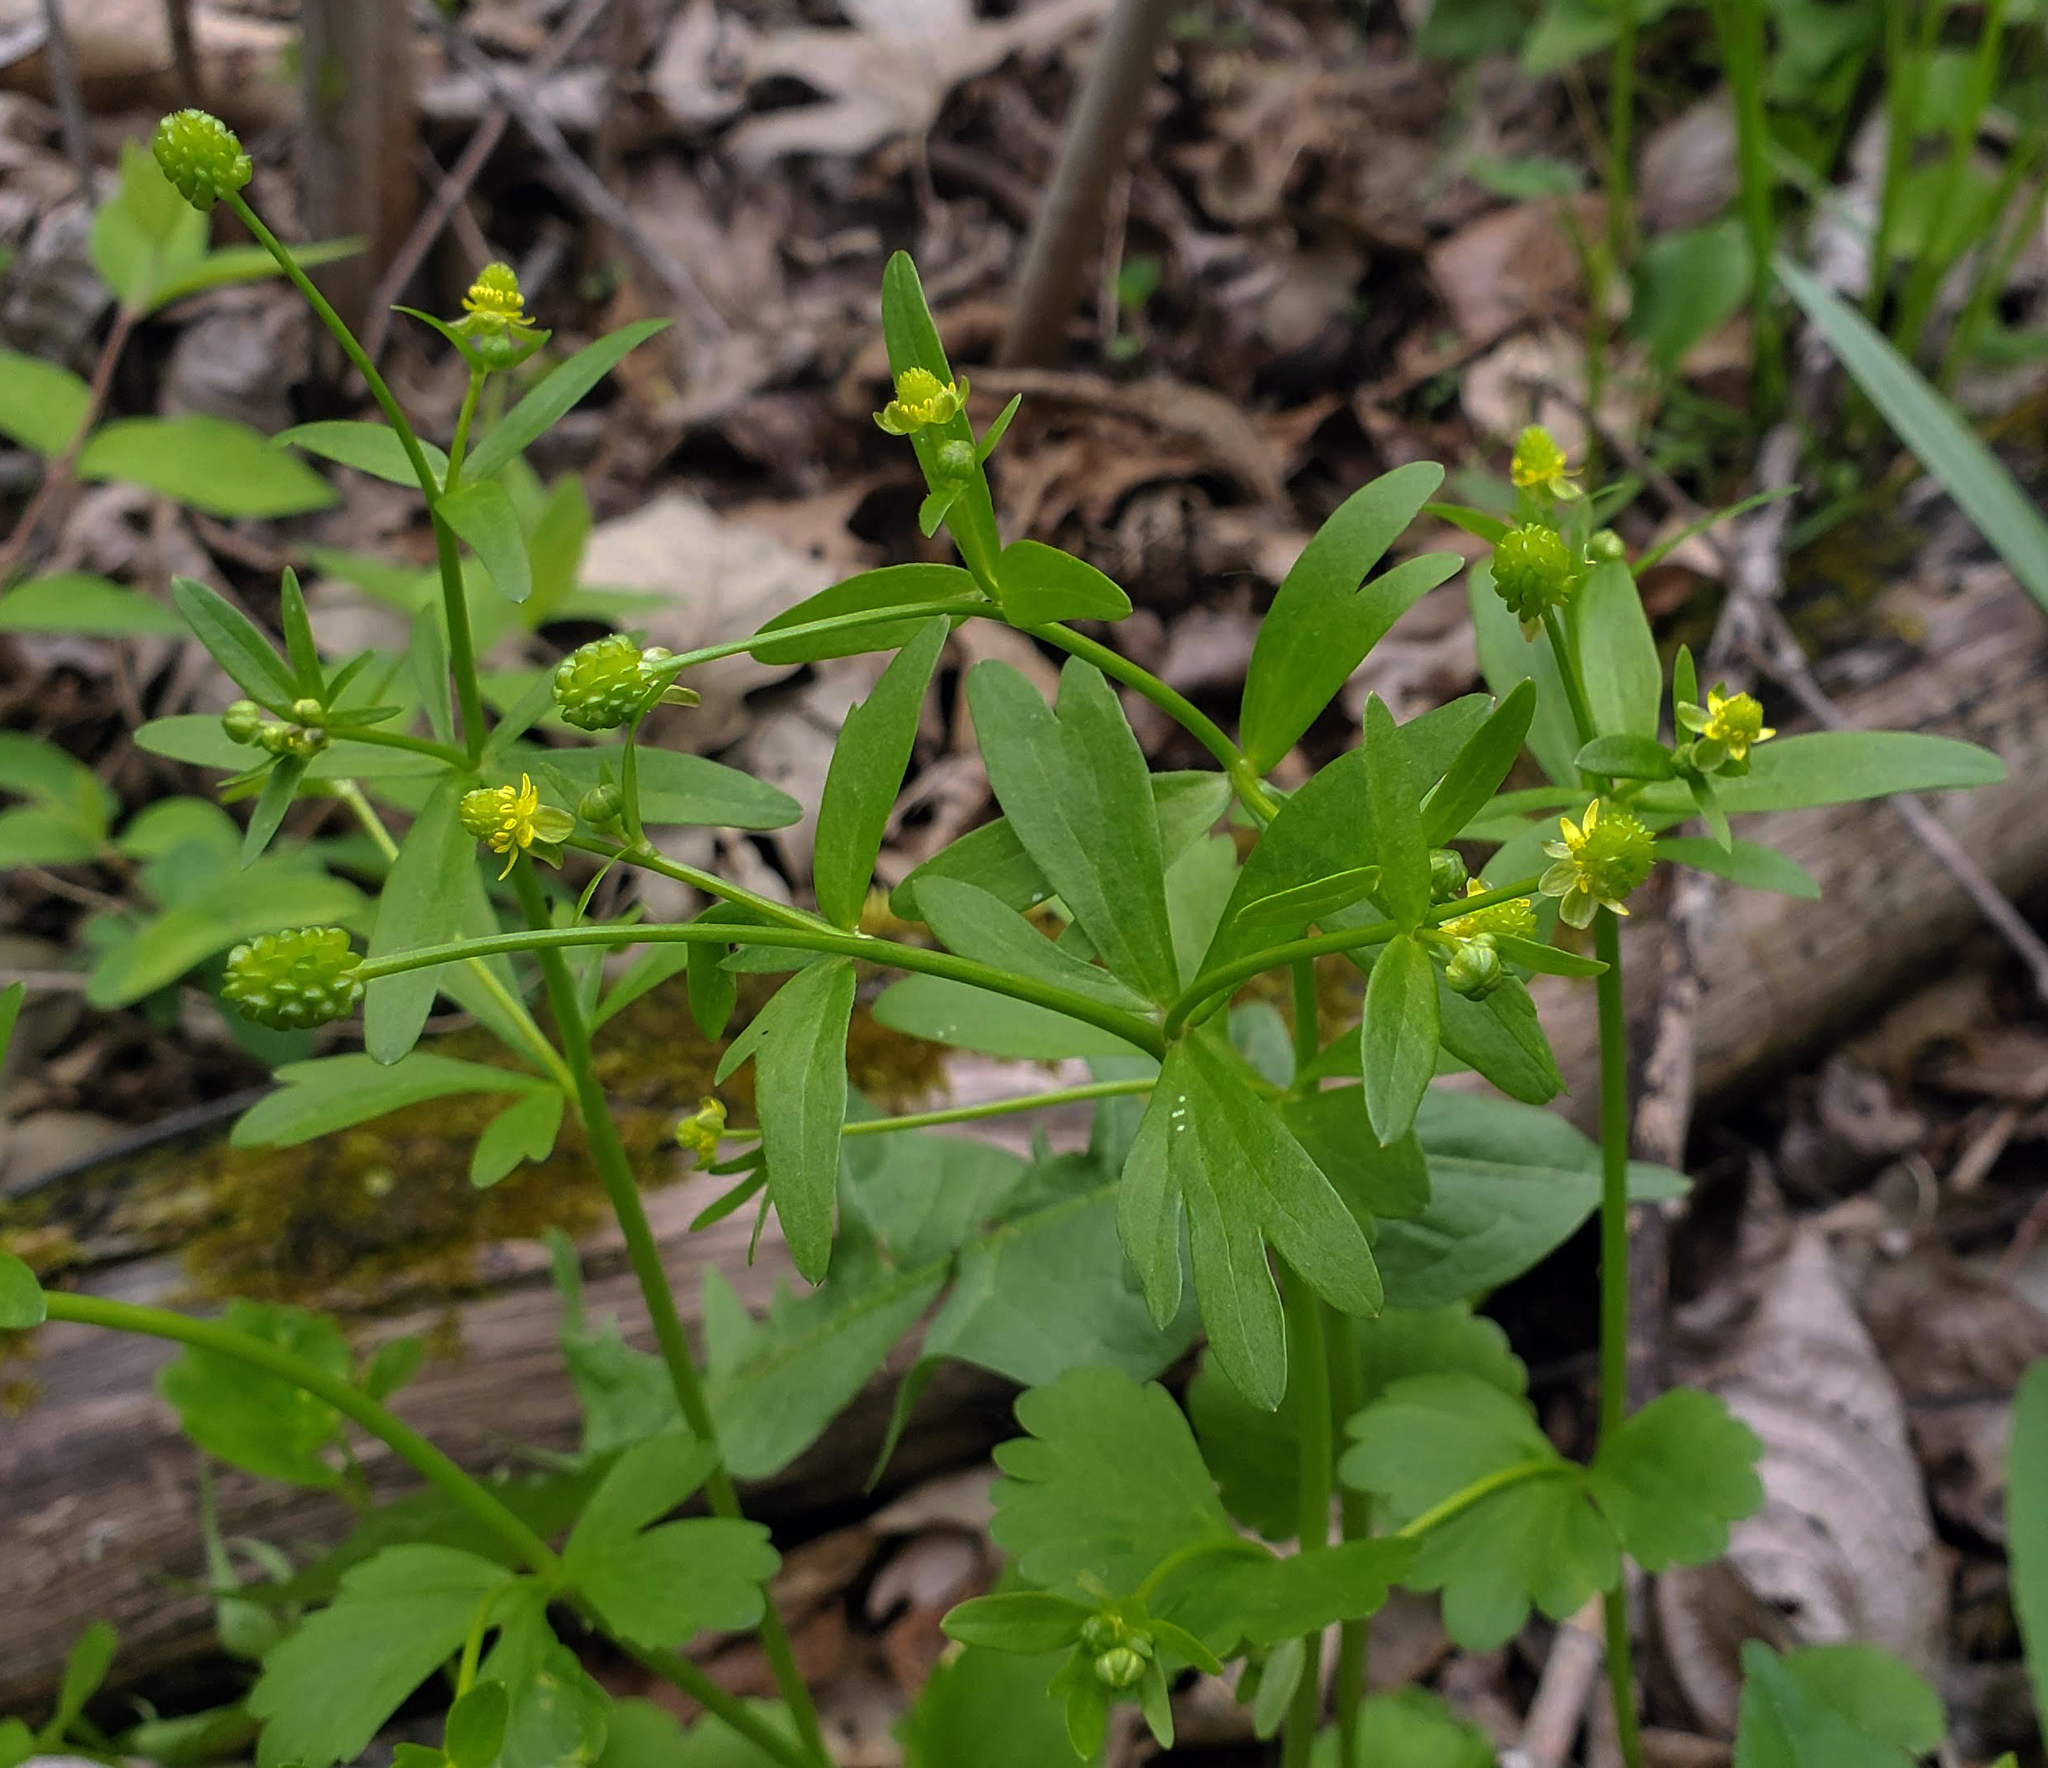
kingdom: Plantae
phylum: Tracheophyta
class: Magnoliopsida
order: Ranunculales
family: Ranunculaceae
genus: Ranunculus
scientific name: Ranunculus abortivus
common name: Early wood buttercup
